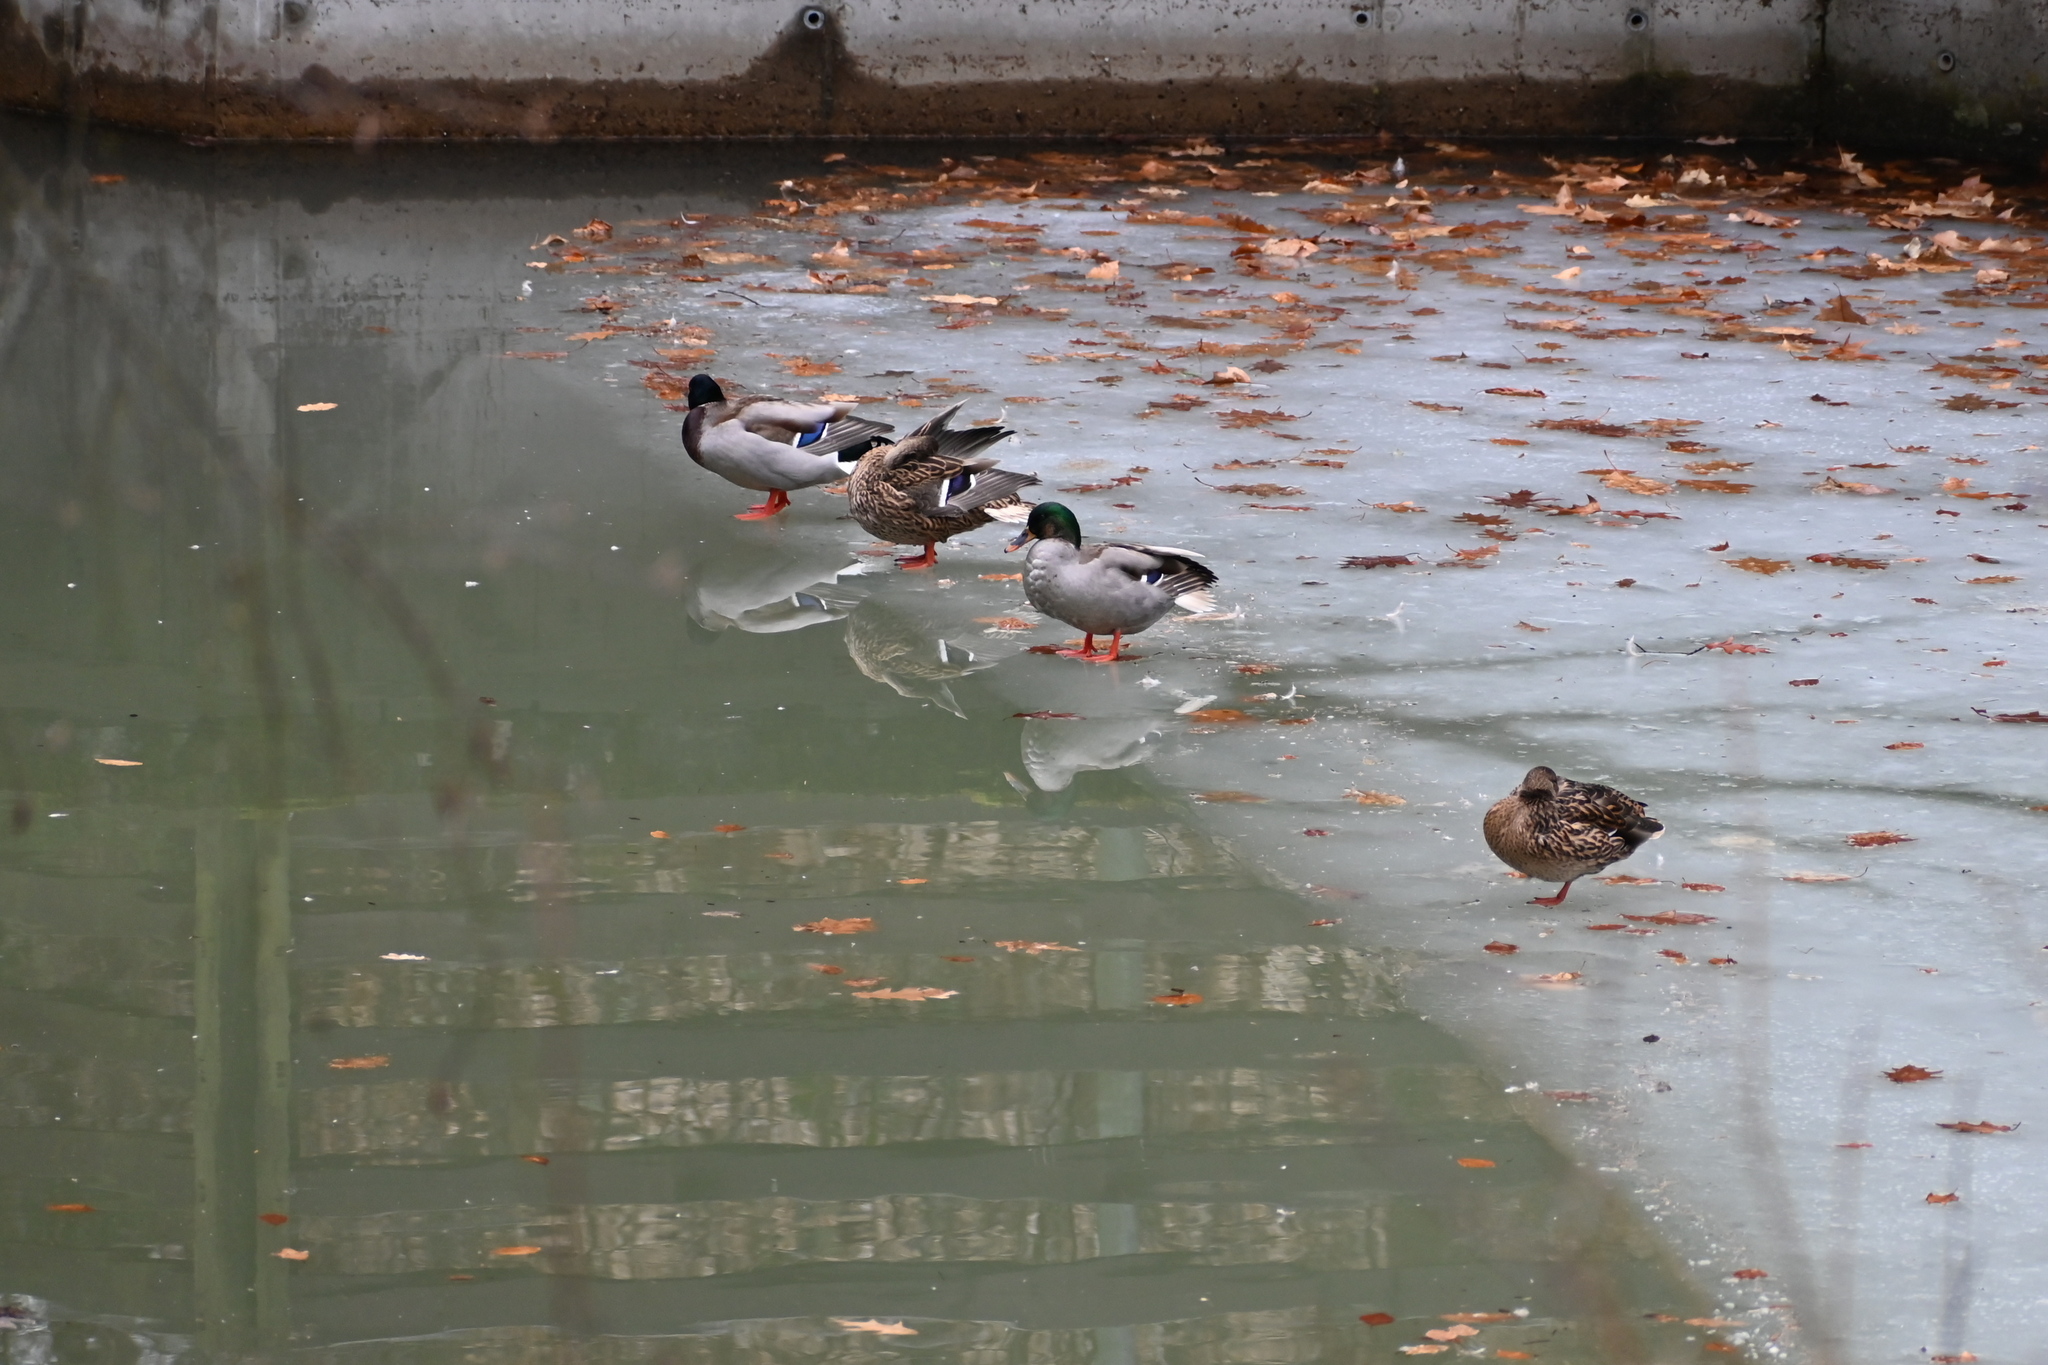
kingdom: Animalia
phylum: Chordata
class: Aves
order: Anseriformes
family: Anatidae
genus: Anas
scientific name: Anas platyrhynchos
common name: Mallard
